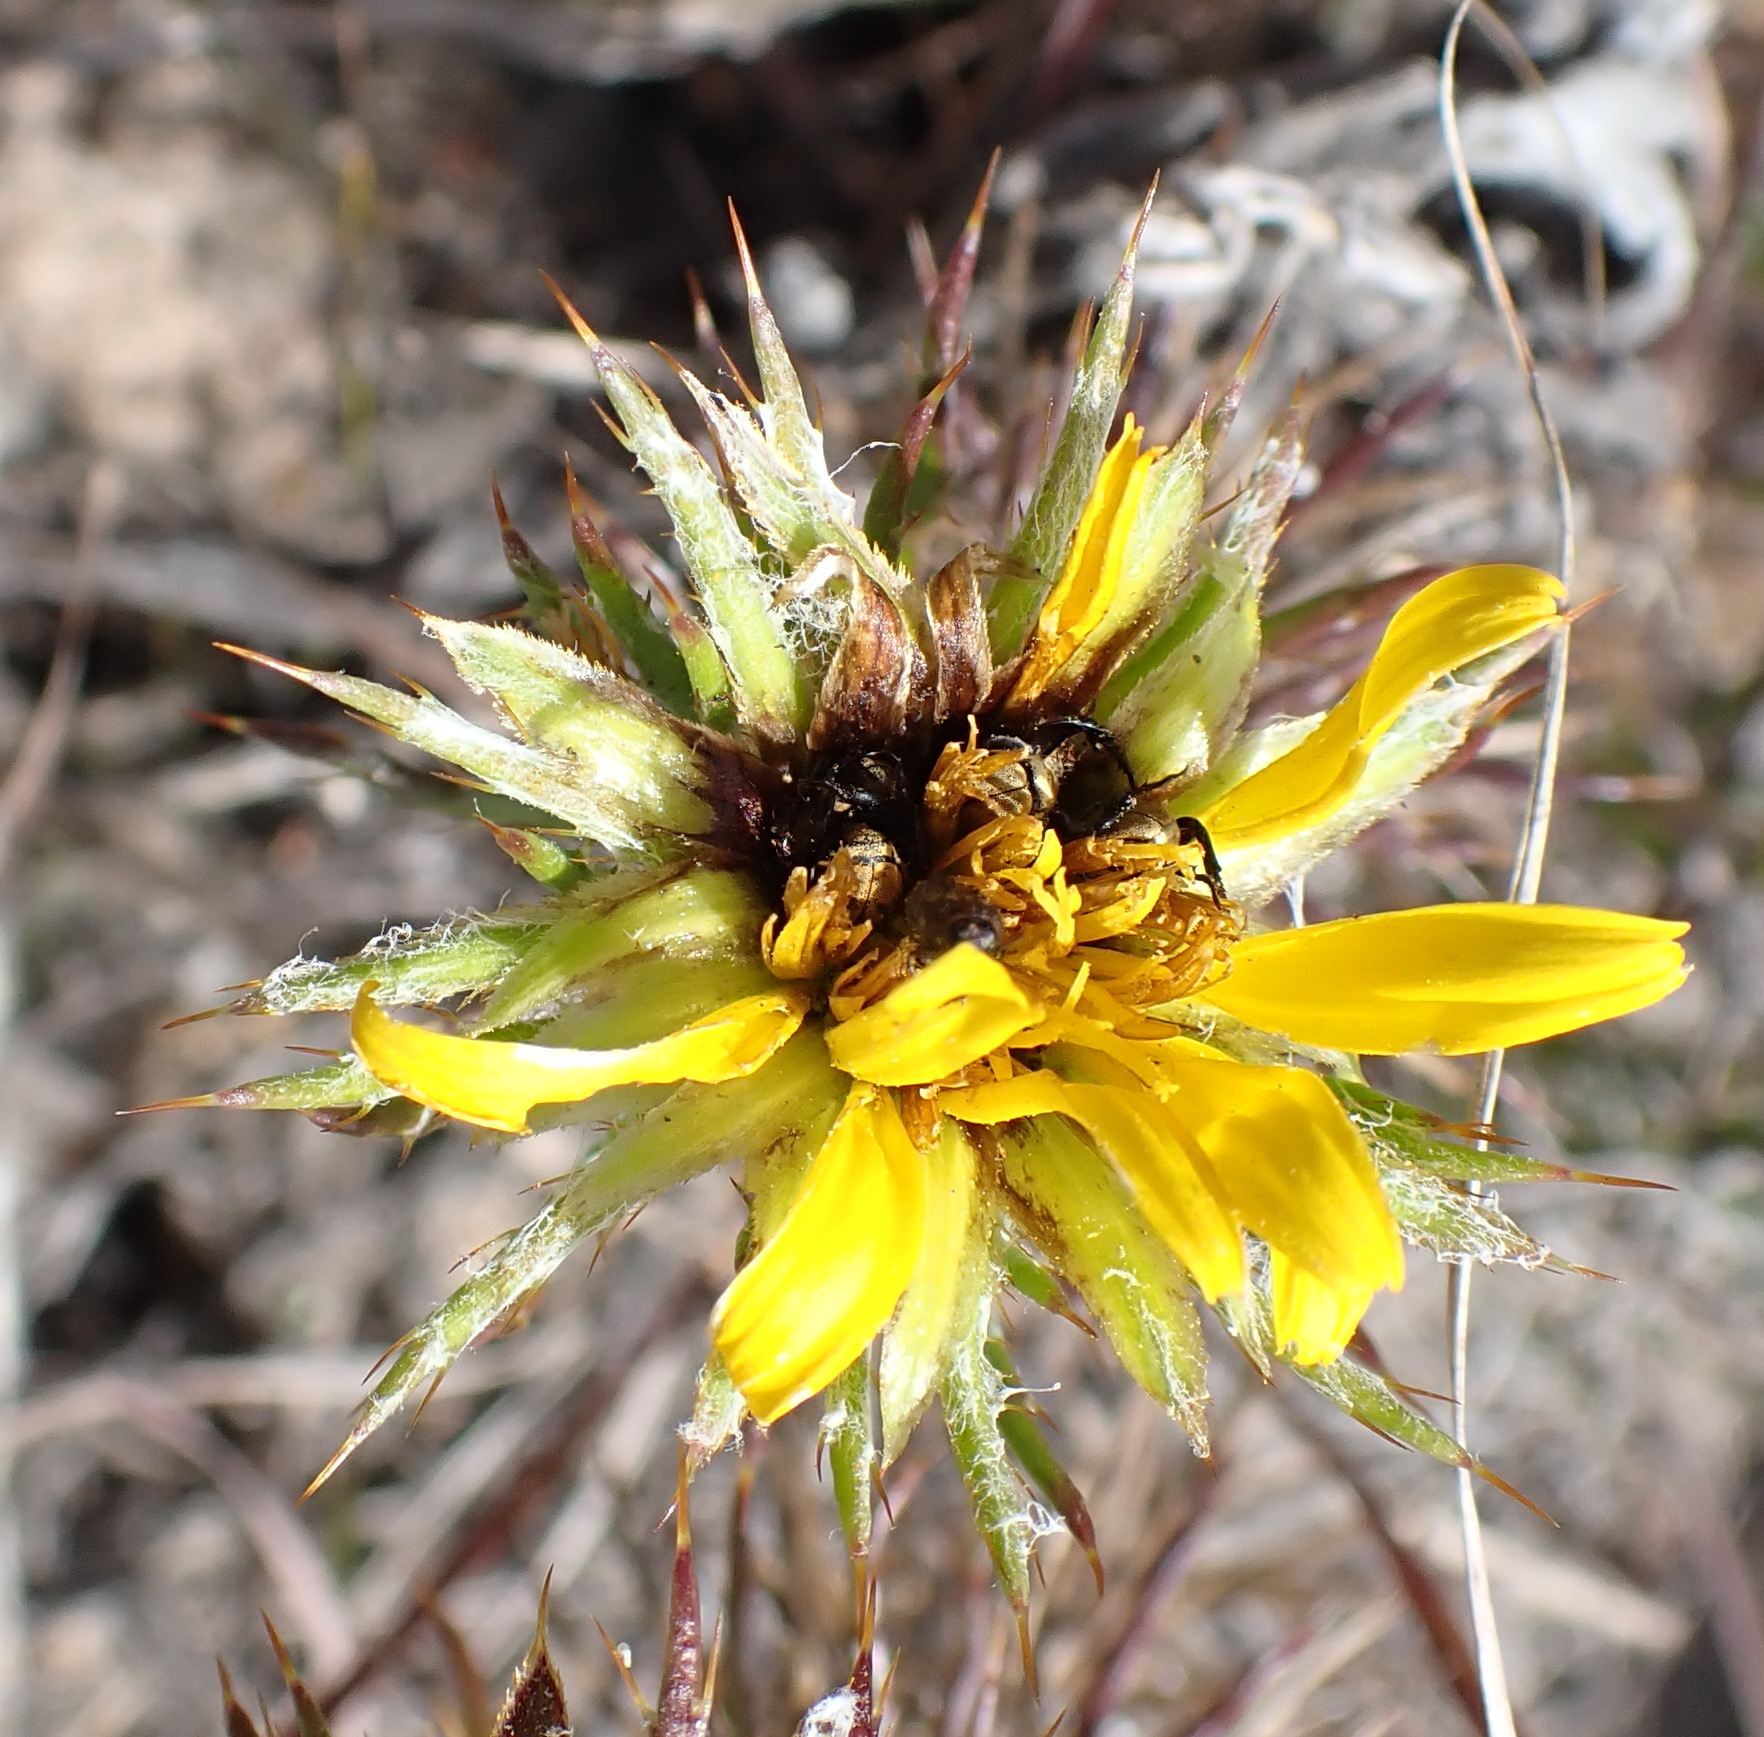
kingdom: Plantae
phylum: Tracheophyta
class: Magnoliopsida
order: Asterales
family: Asteraceae
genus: Cullumia
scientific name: Cullumia patula
